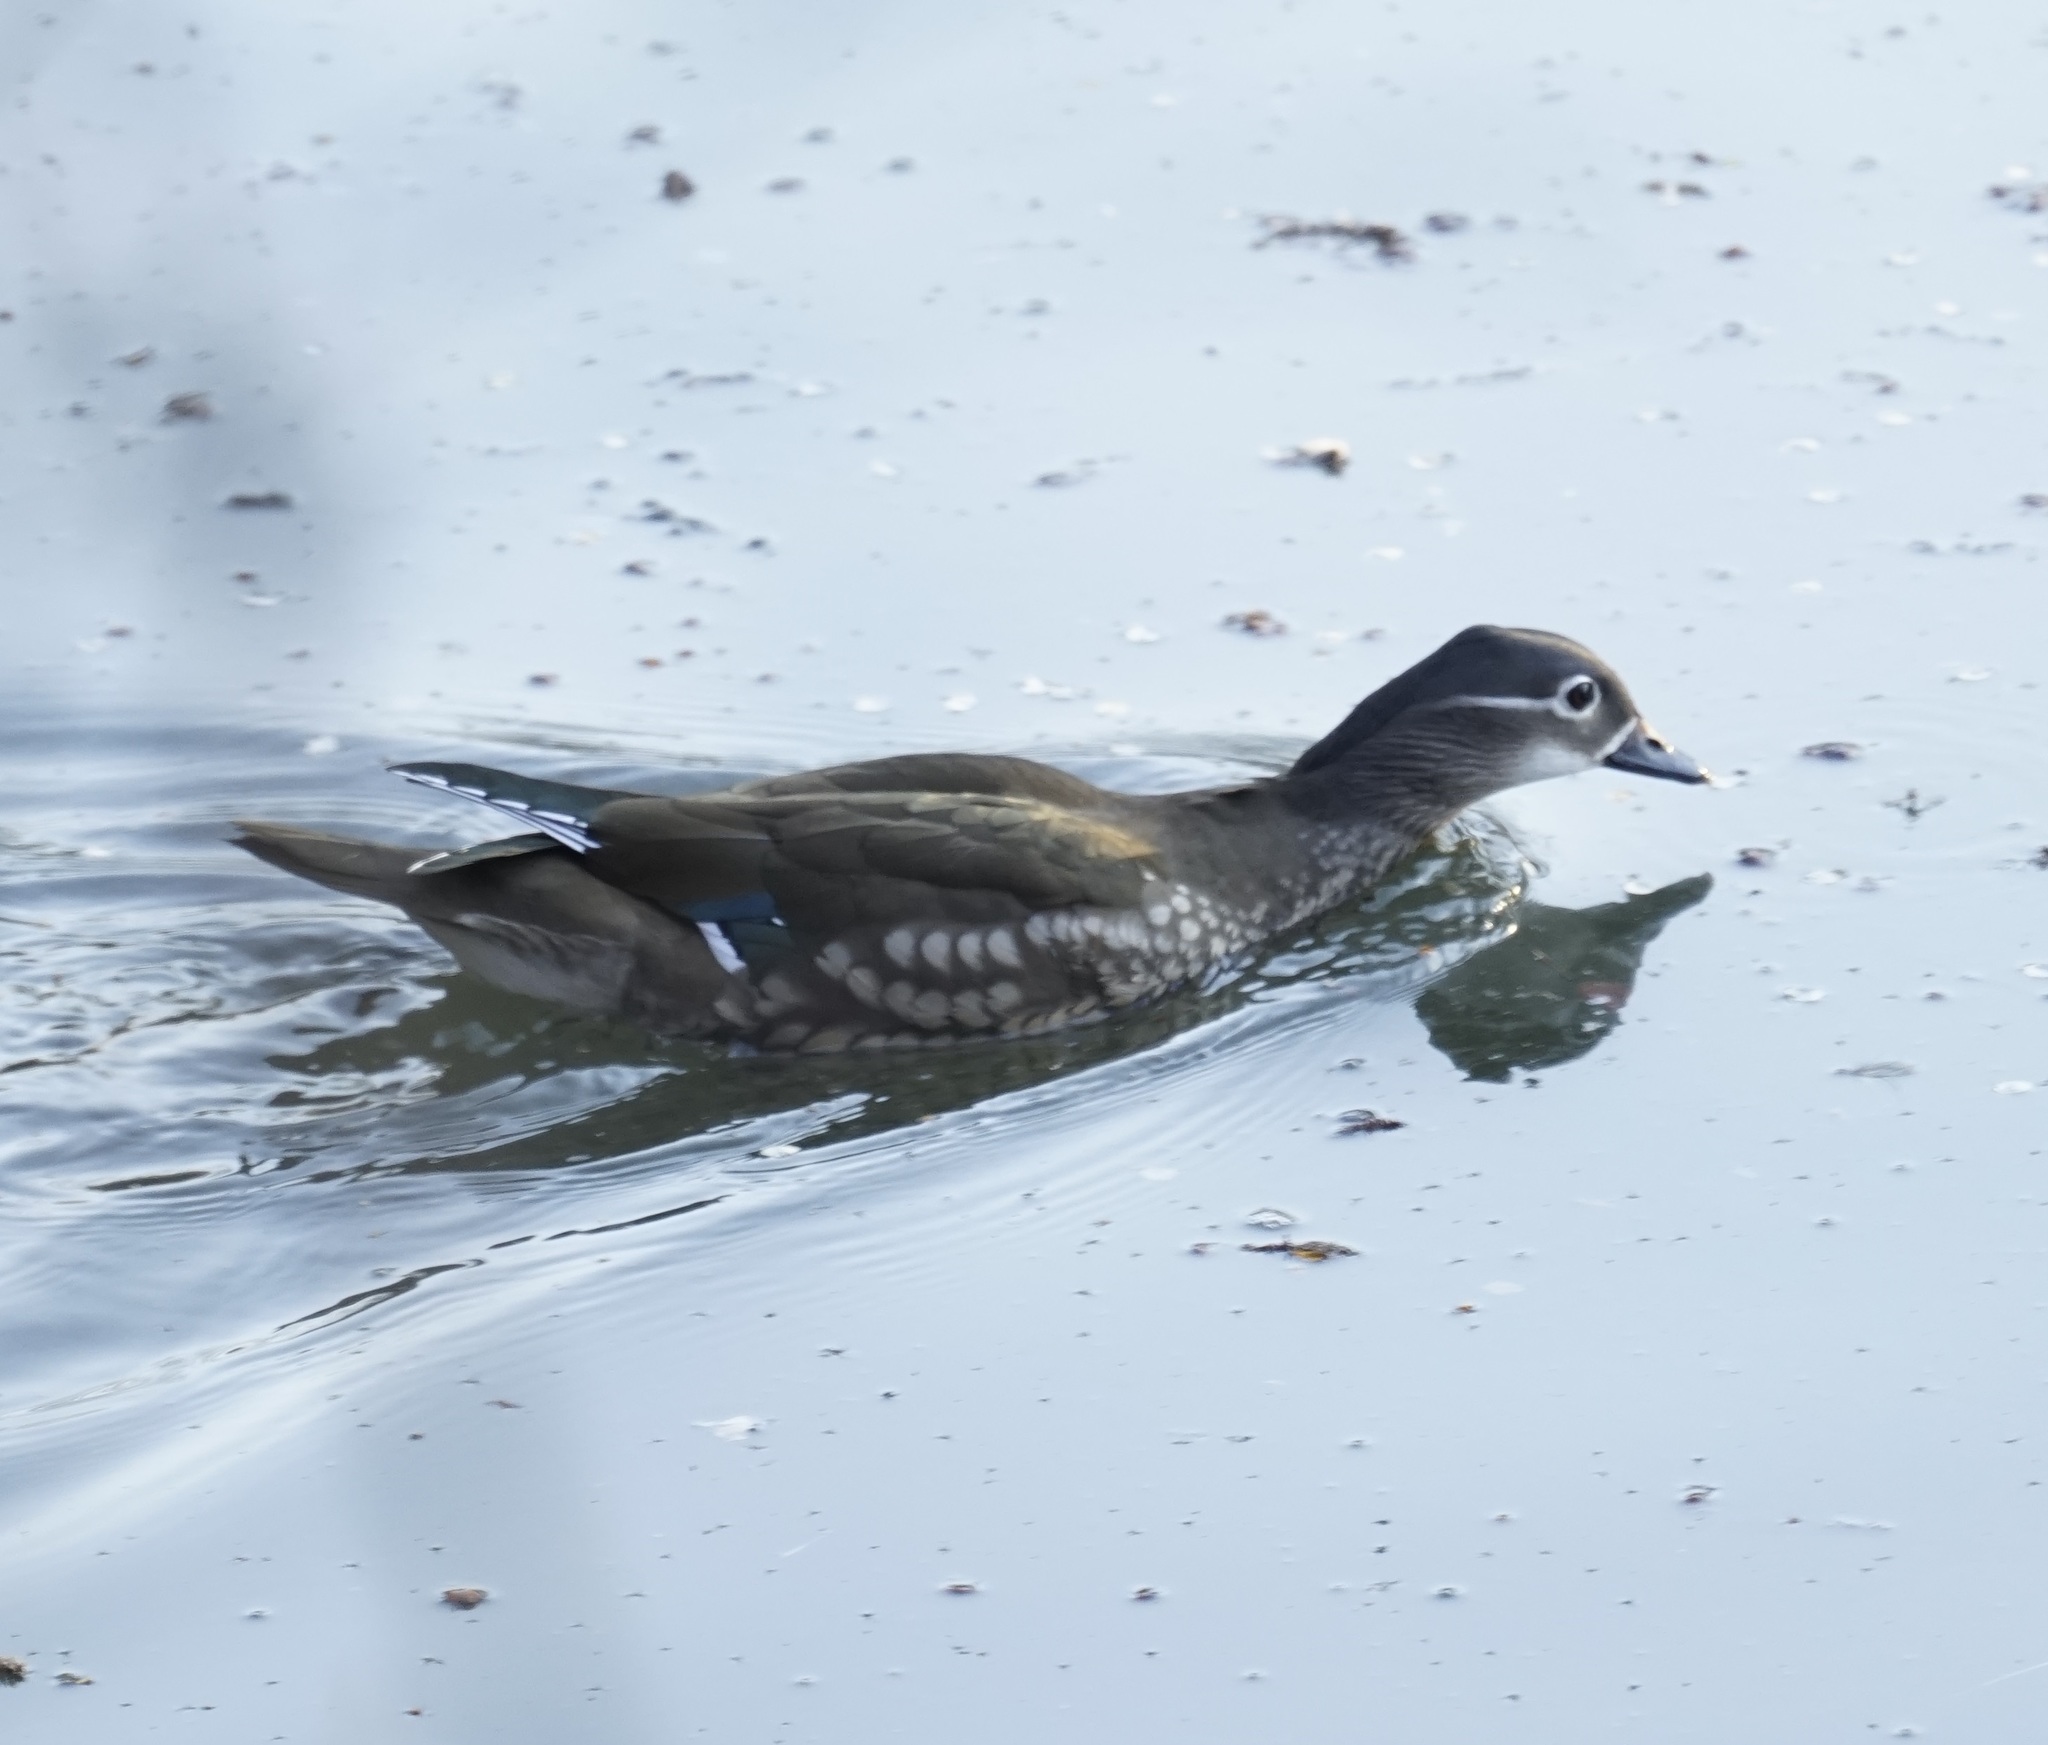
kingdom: Animalia
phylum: Chordata
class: Aves
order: Anseriformes
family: Anatidae
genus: Aix
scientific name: Aix galericulata
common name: Mandarin duck
